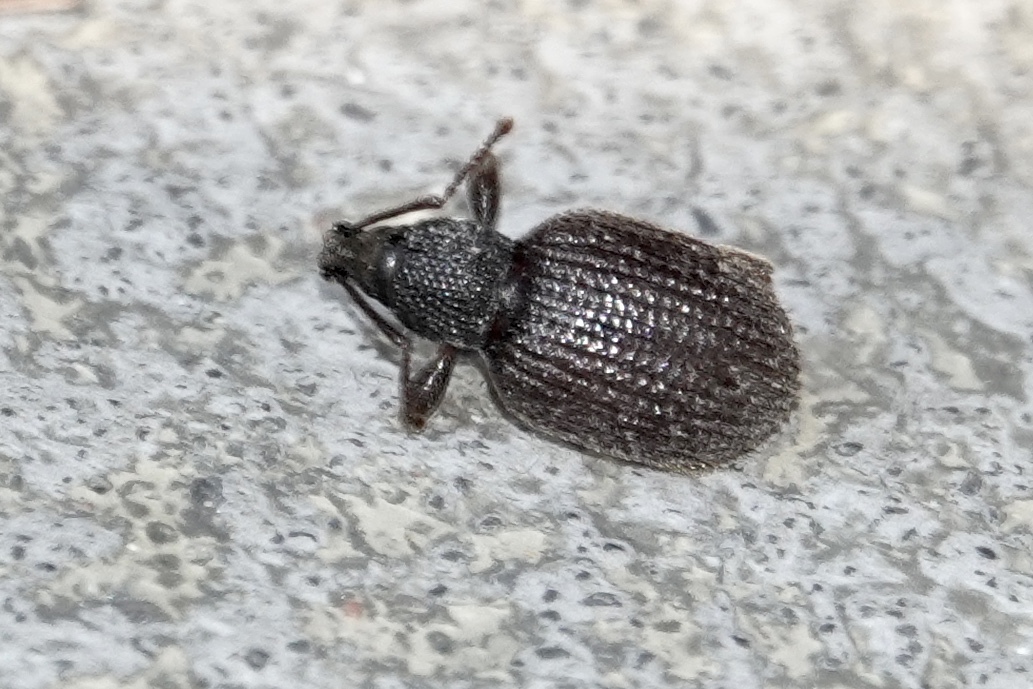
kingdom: Animalia
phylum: Arthropoda
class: Insecta
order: Coleoptera
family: Curculionidae
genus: Otiorhynchus
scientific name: Otiorhynchus rugosostriatus
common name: Weevil
